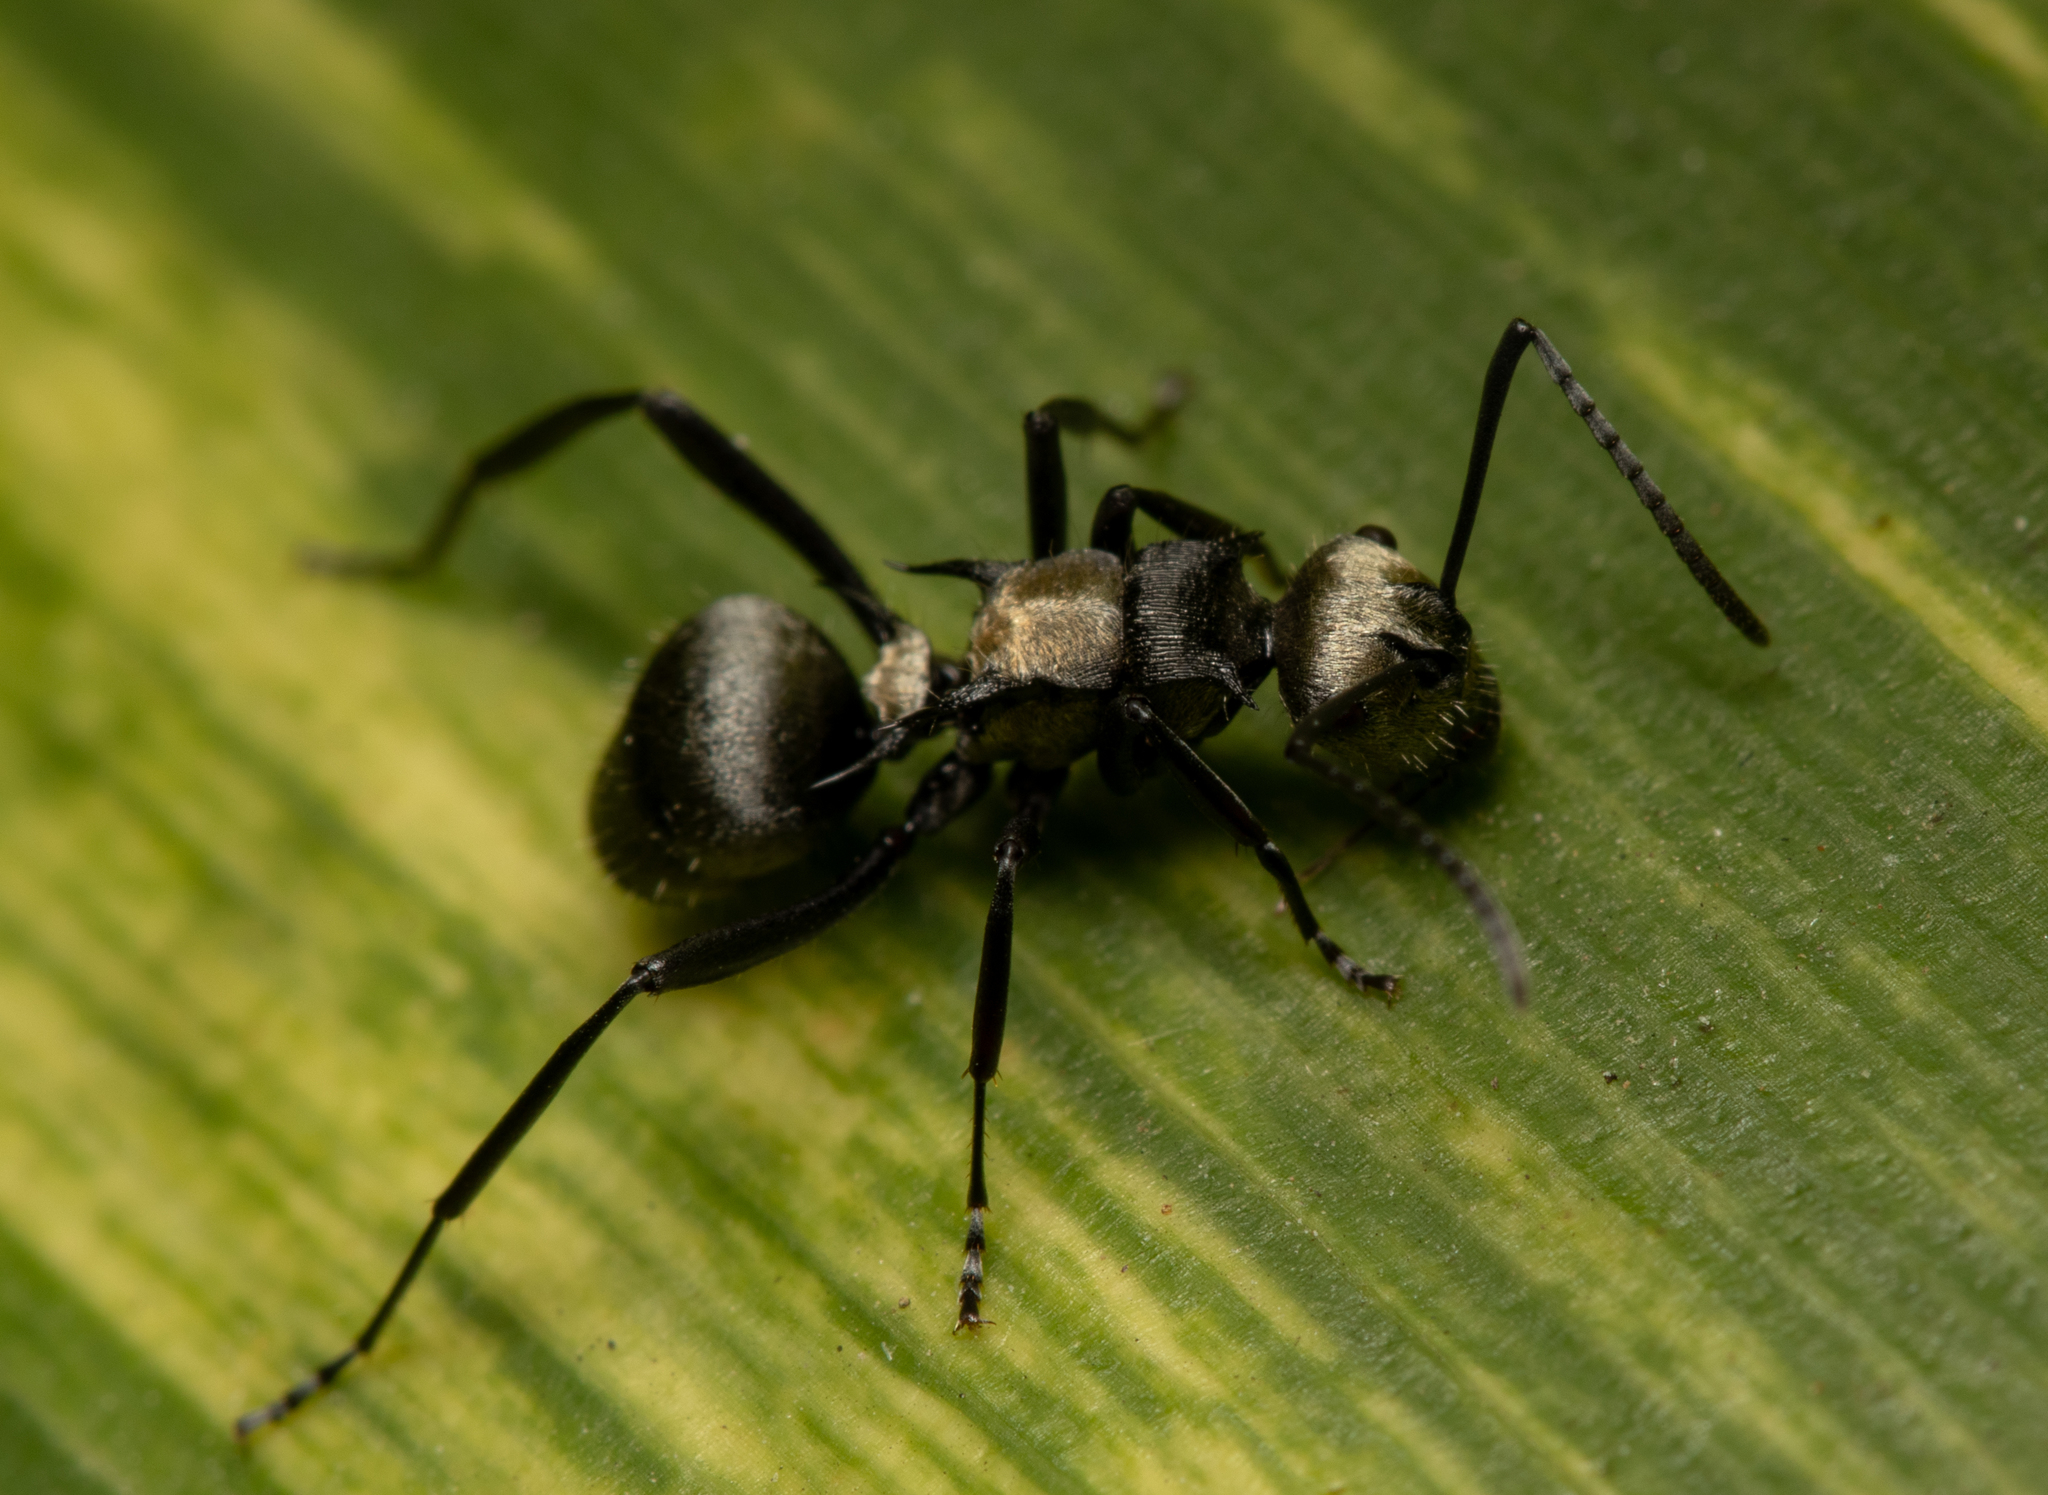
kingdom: Animalia
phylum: Arthropoda
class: Insecta
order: Hymenoptera
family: Formicidae
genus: Polyrhachis
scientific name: Polyrhachis daemeli
